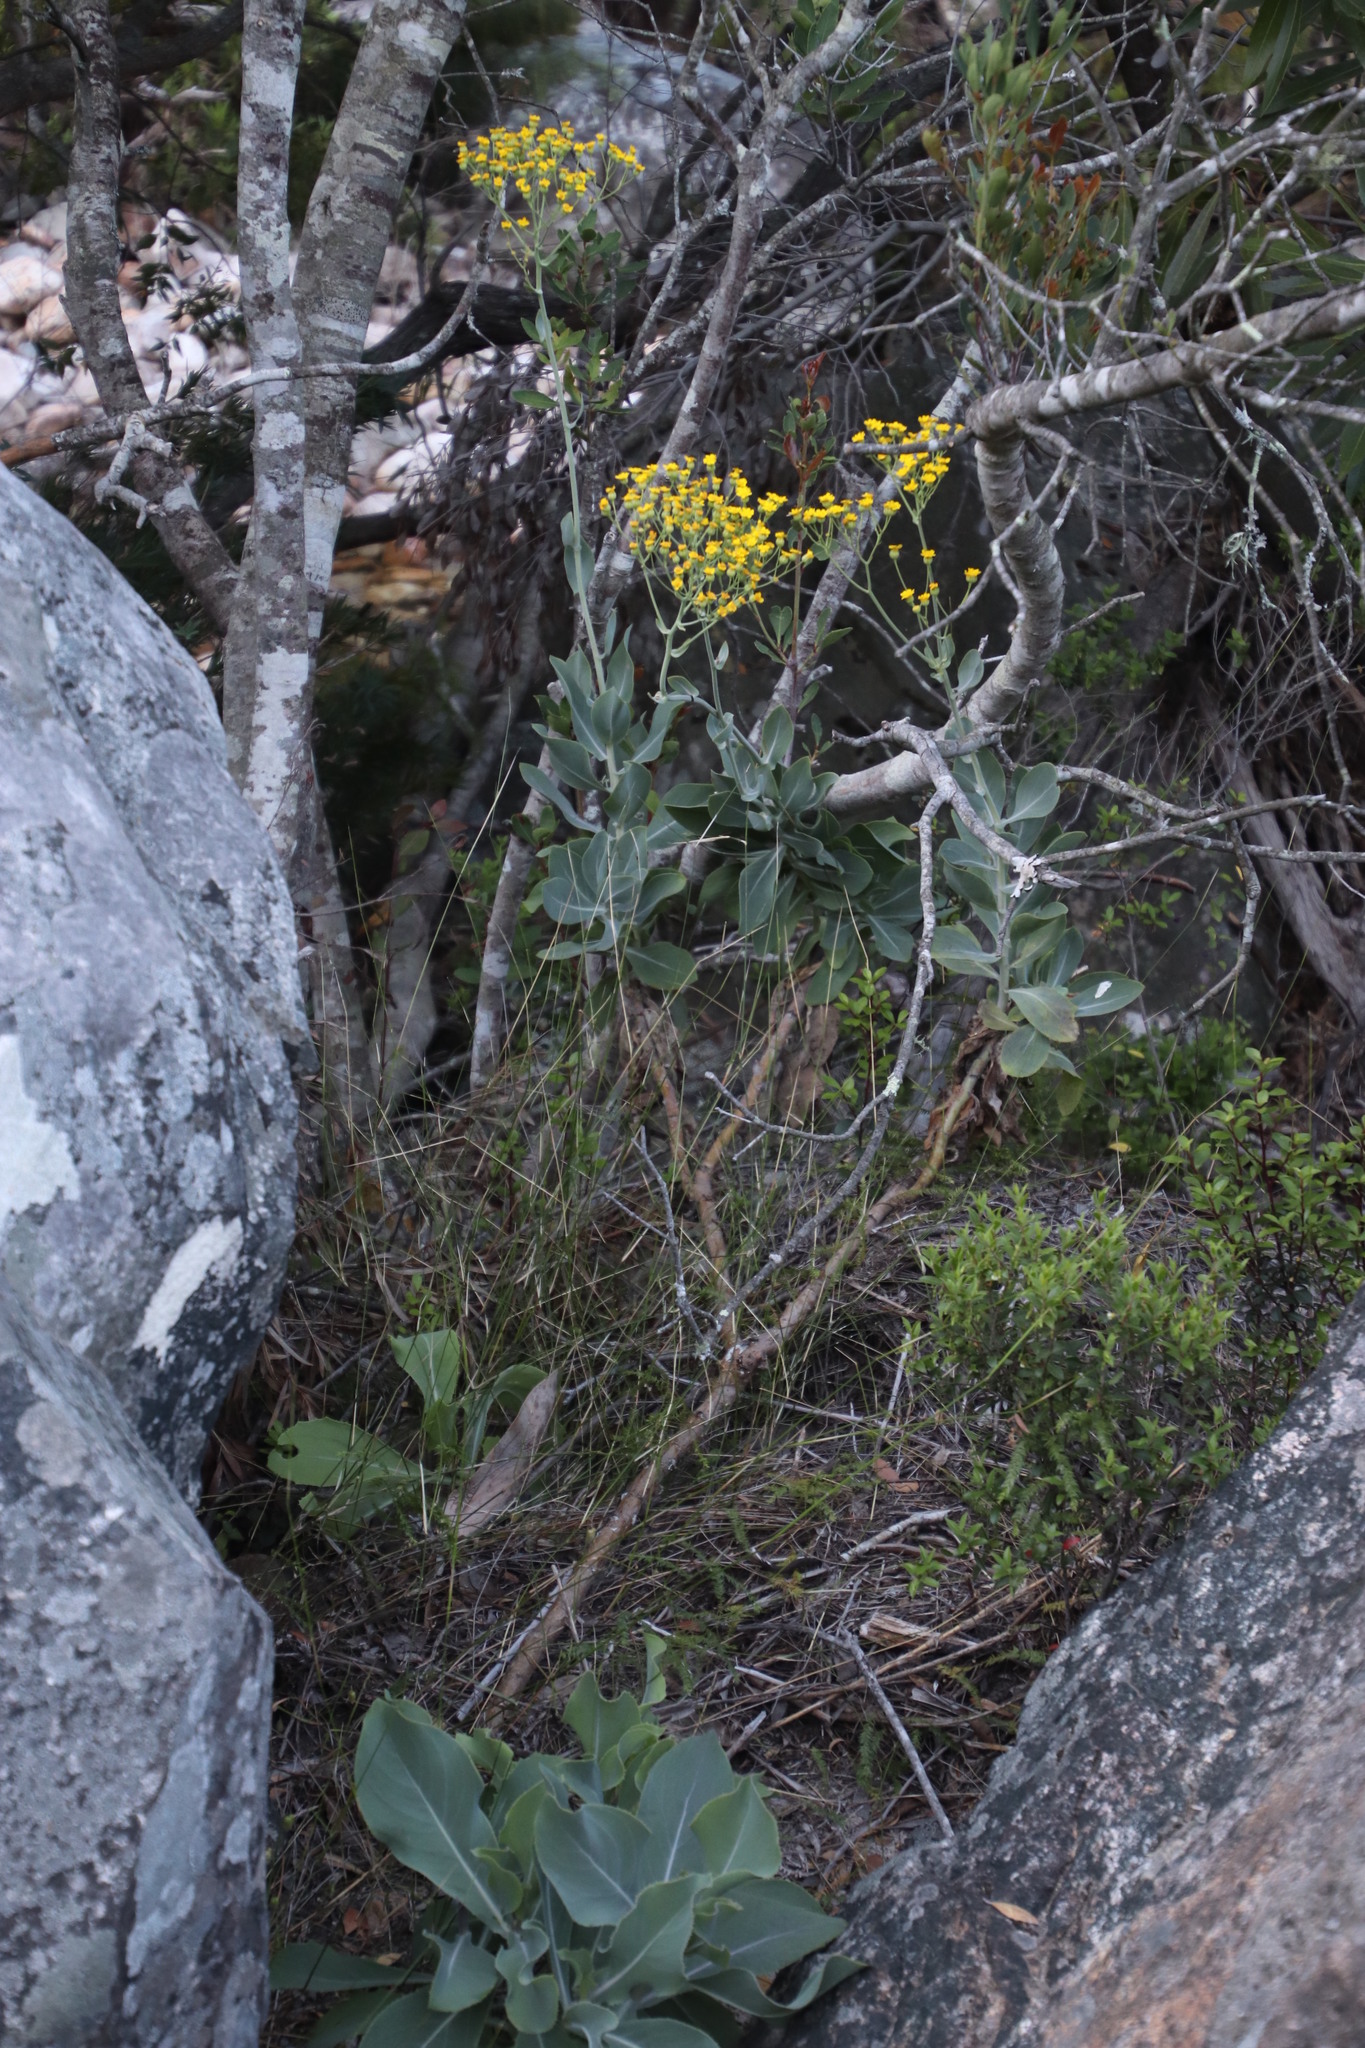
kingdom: Plantae
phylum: Tracheophyta
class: Magnoliopsida
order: Asterales
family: Asteraceae
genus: Othonna
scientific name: Othonna parviflora
